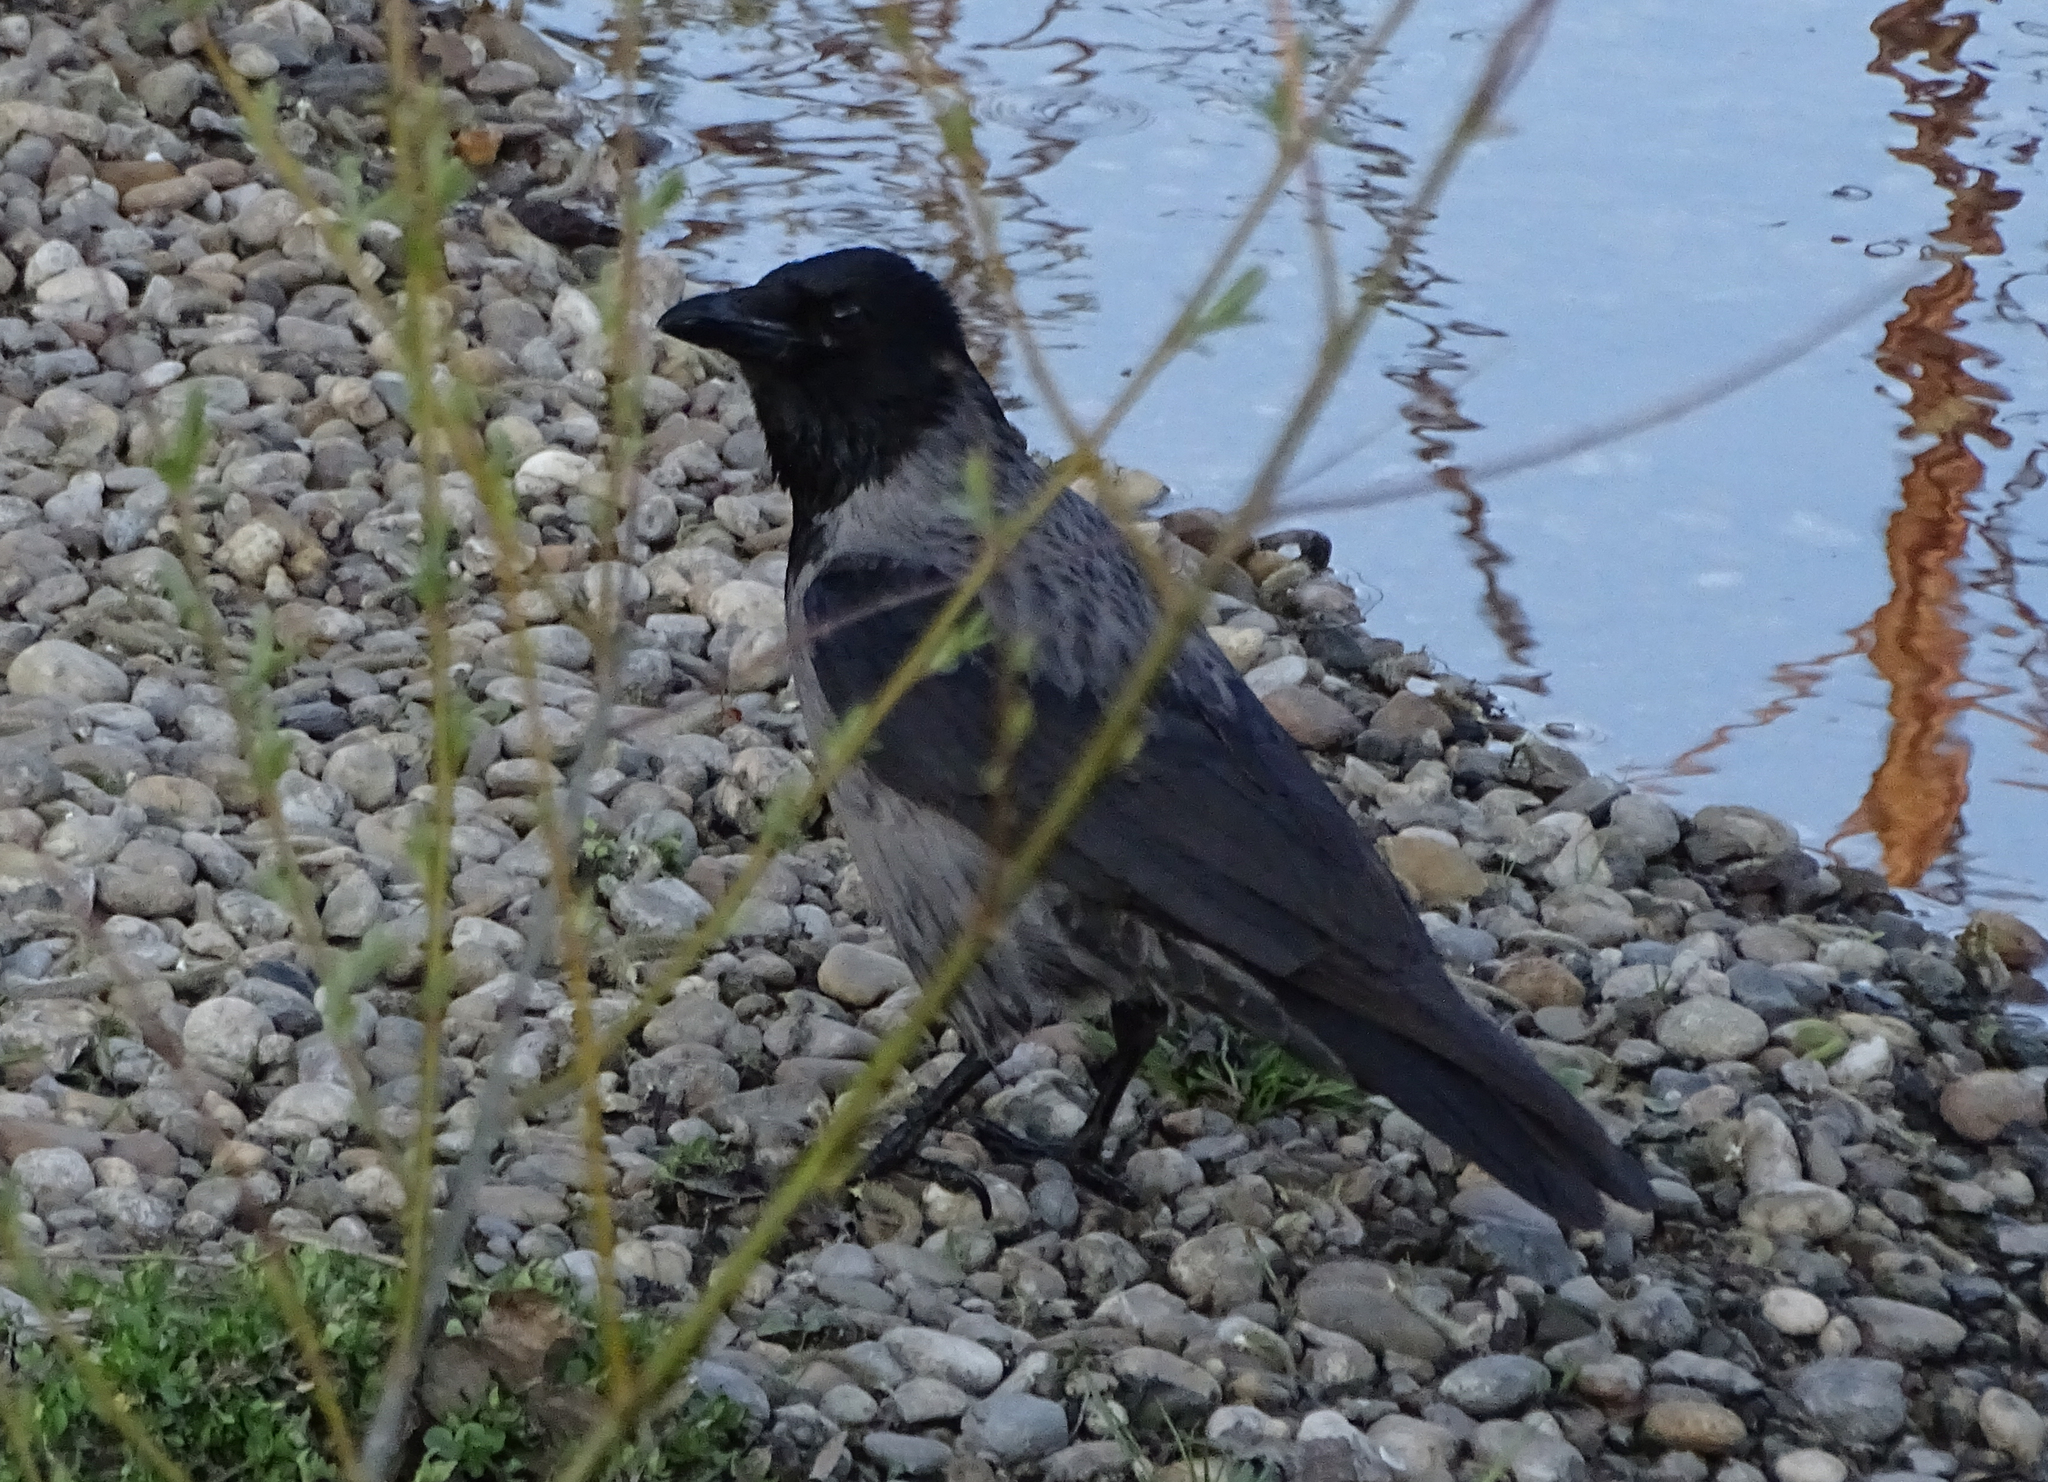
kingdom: Animalia
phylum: Chordata
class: Aves
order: Passeriformes
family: Corvidae
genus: Corvus
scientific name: Corvus
